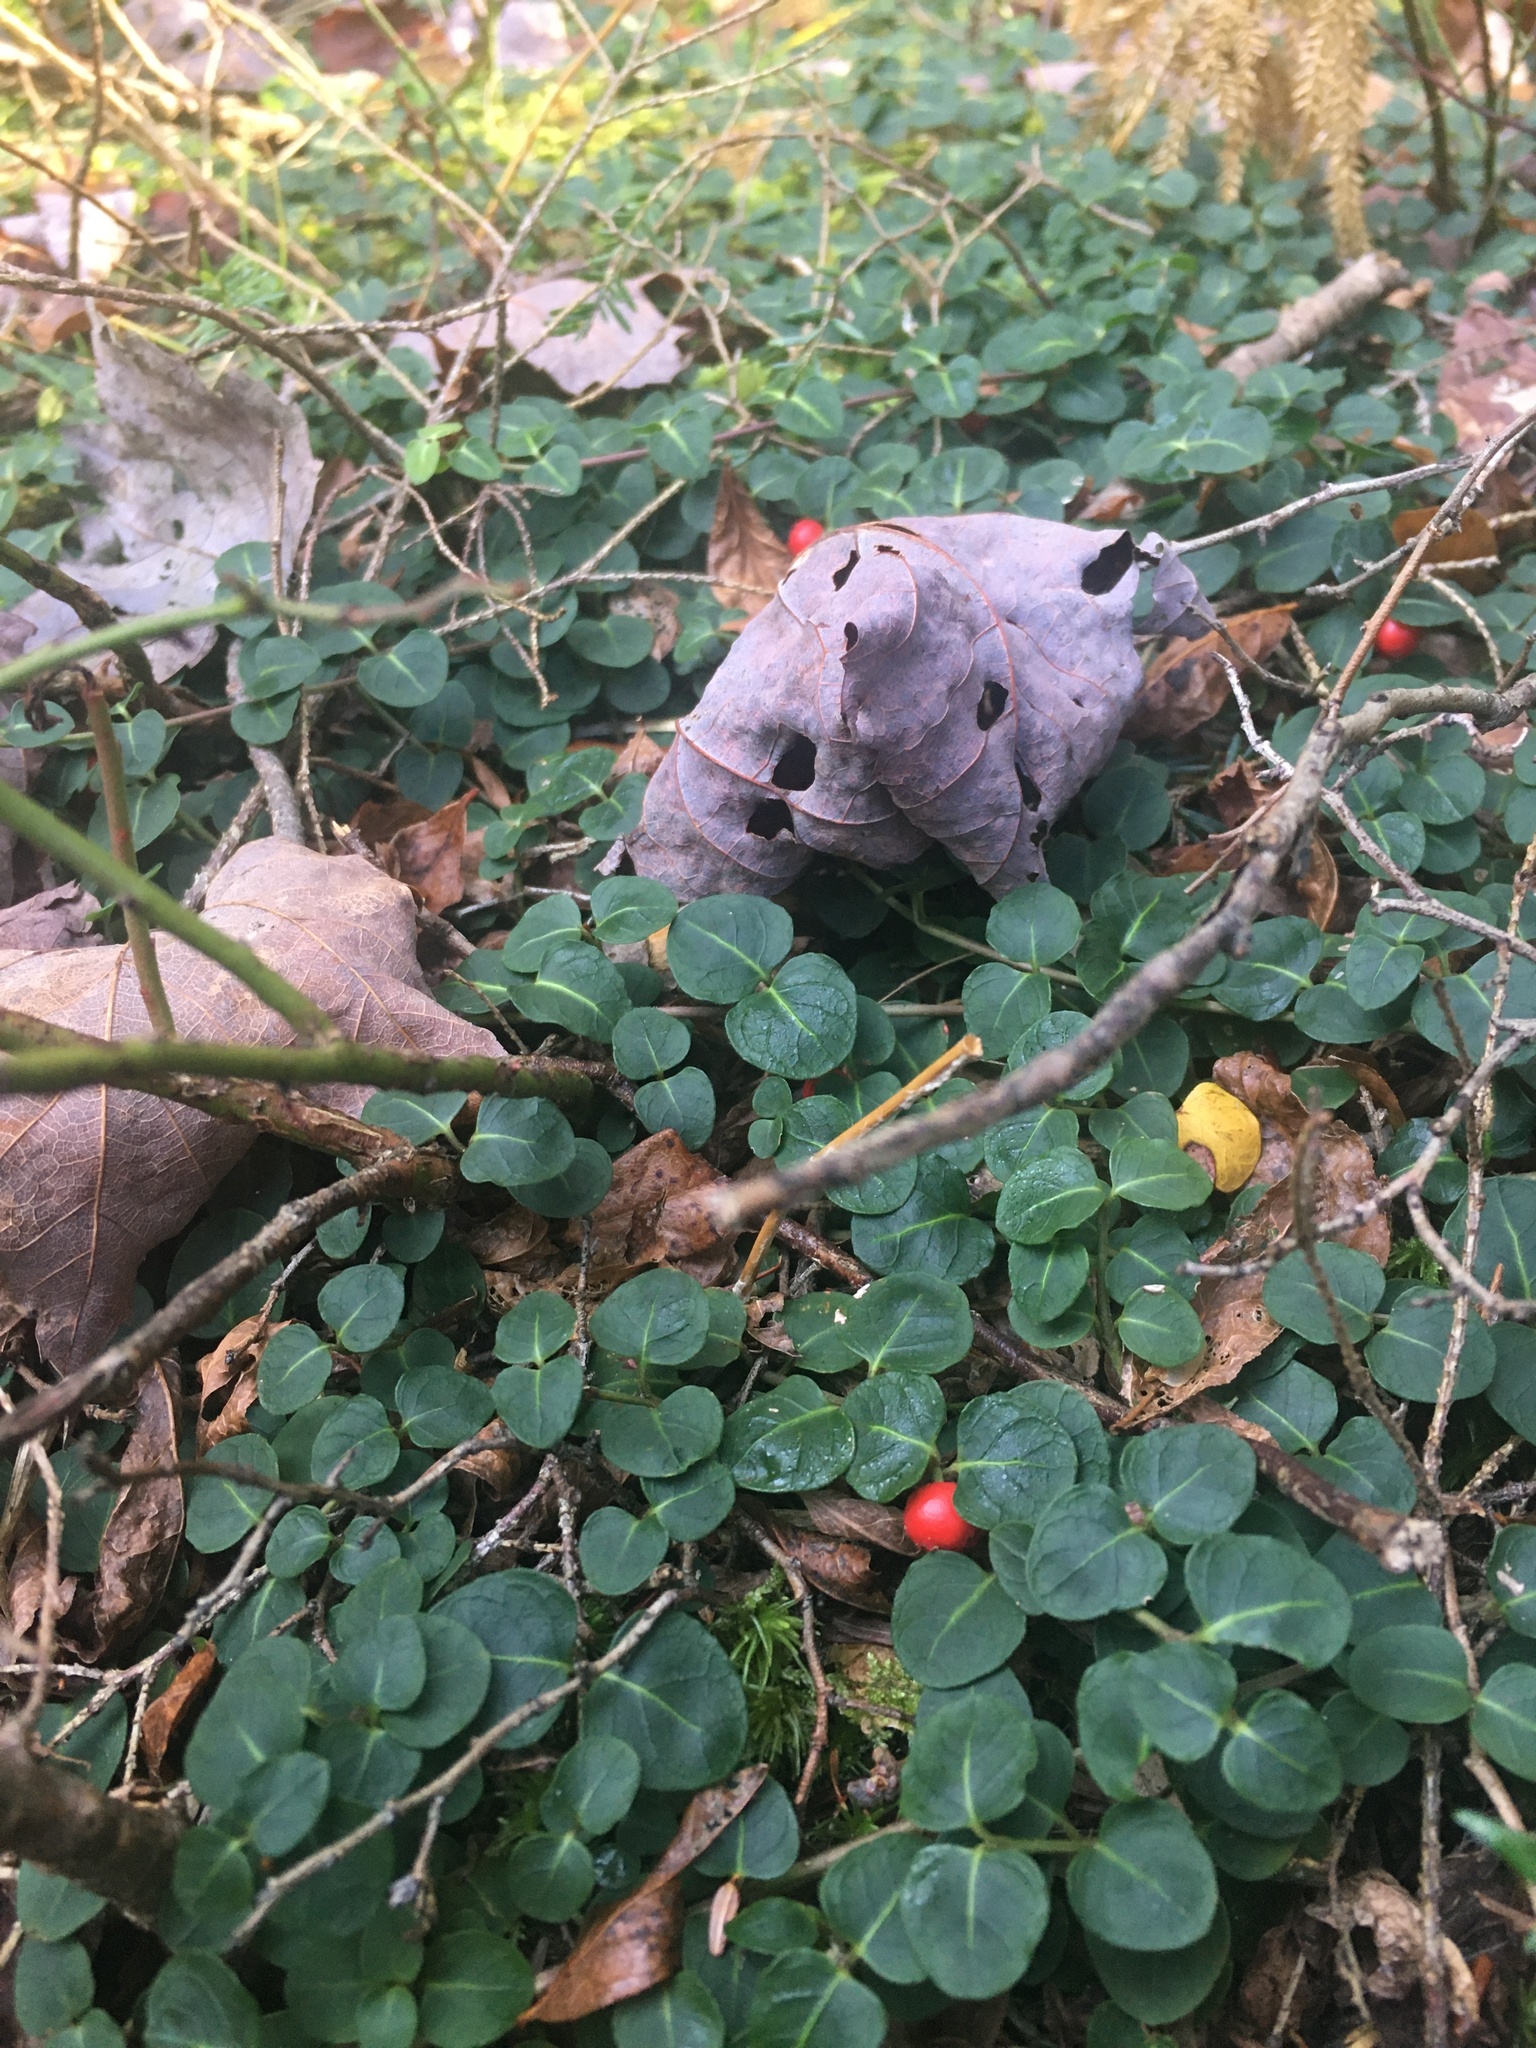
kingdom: Plantae
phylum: Tracheophyta
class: Magnoliopsida
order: Gentianales
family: Rubiaceae
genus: Mitchella
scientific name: Mitchella repens
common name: Partridge-berry
